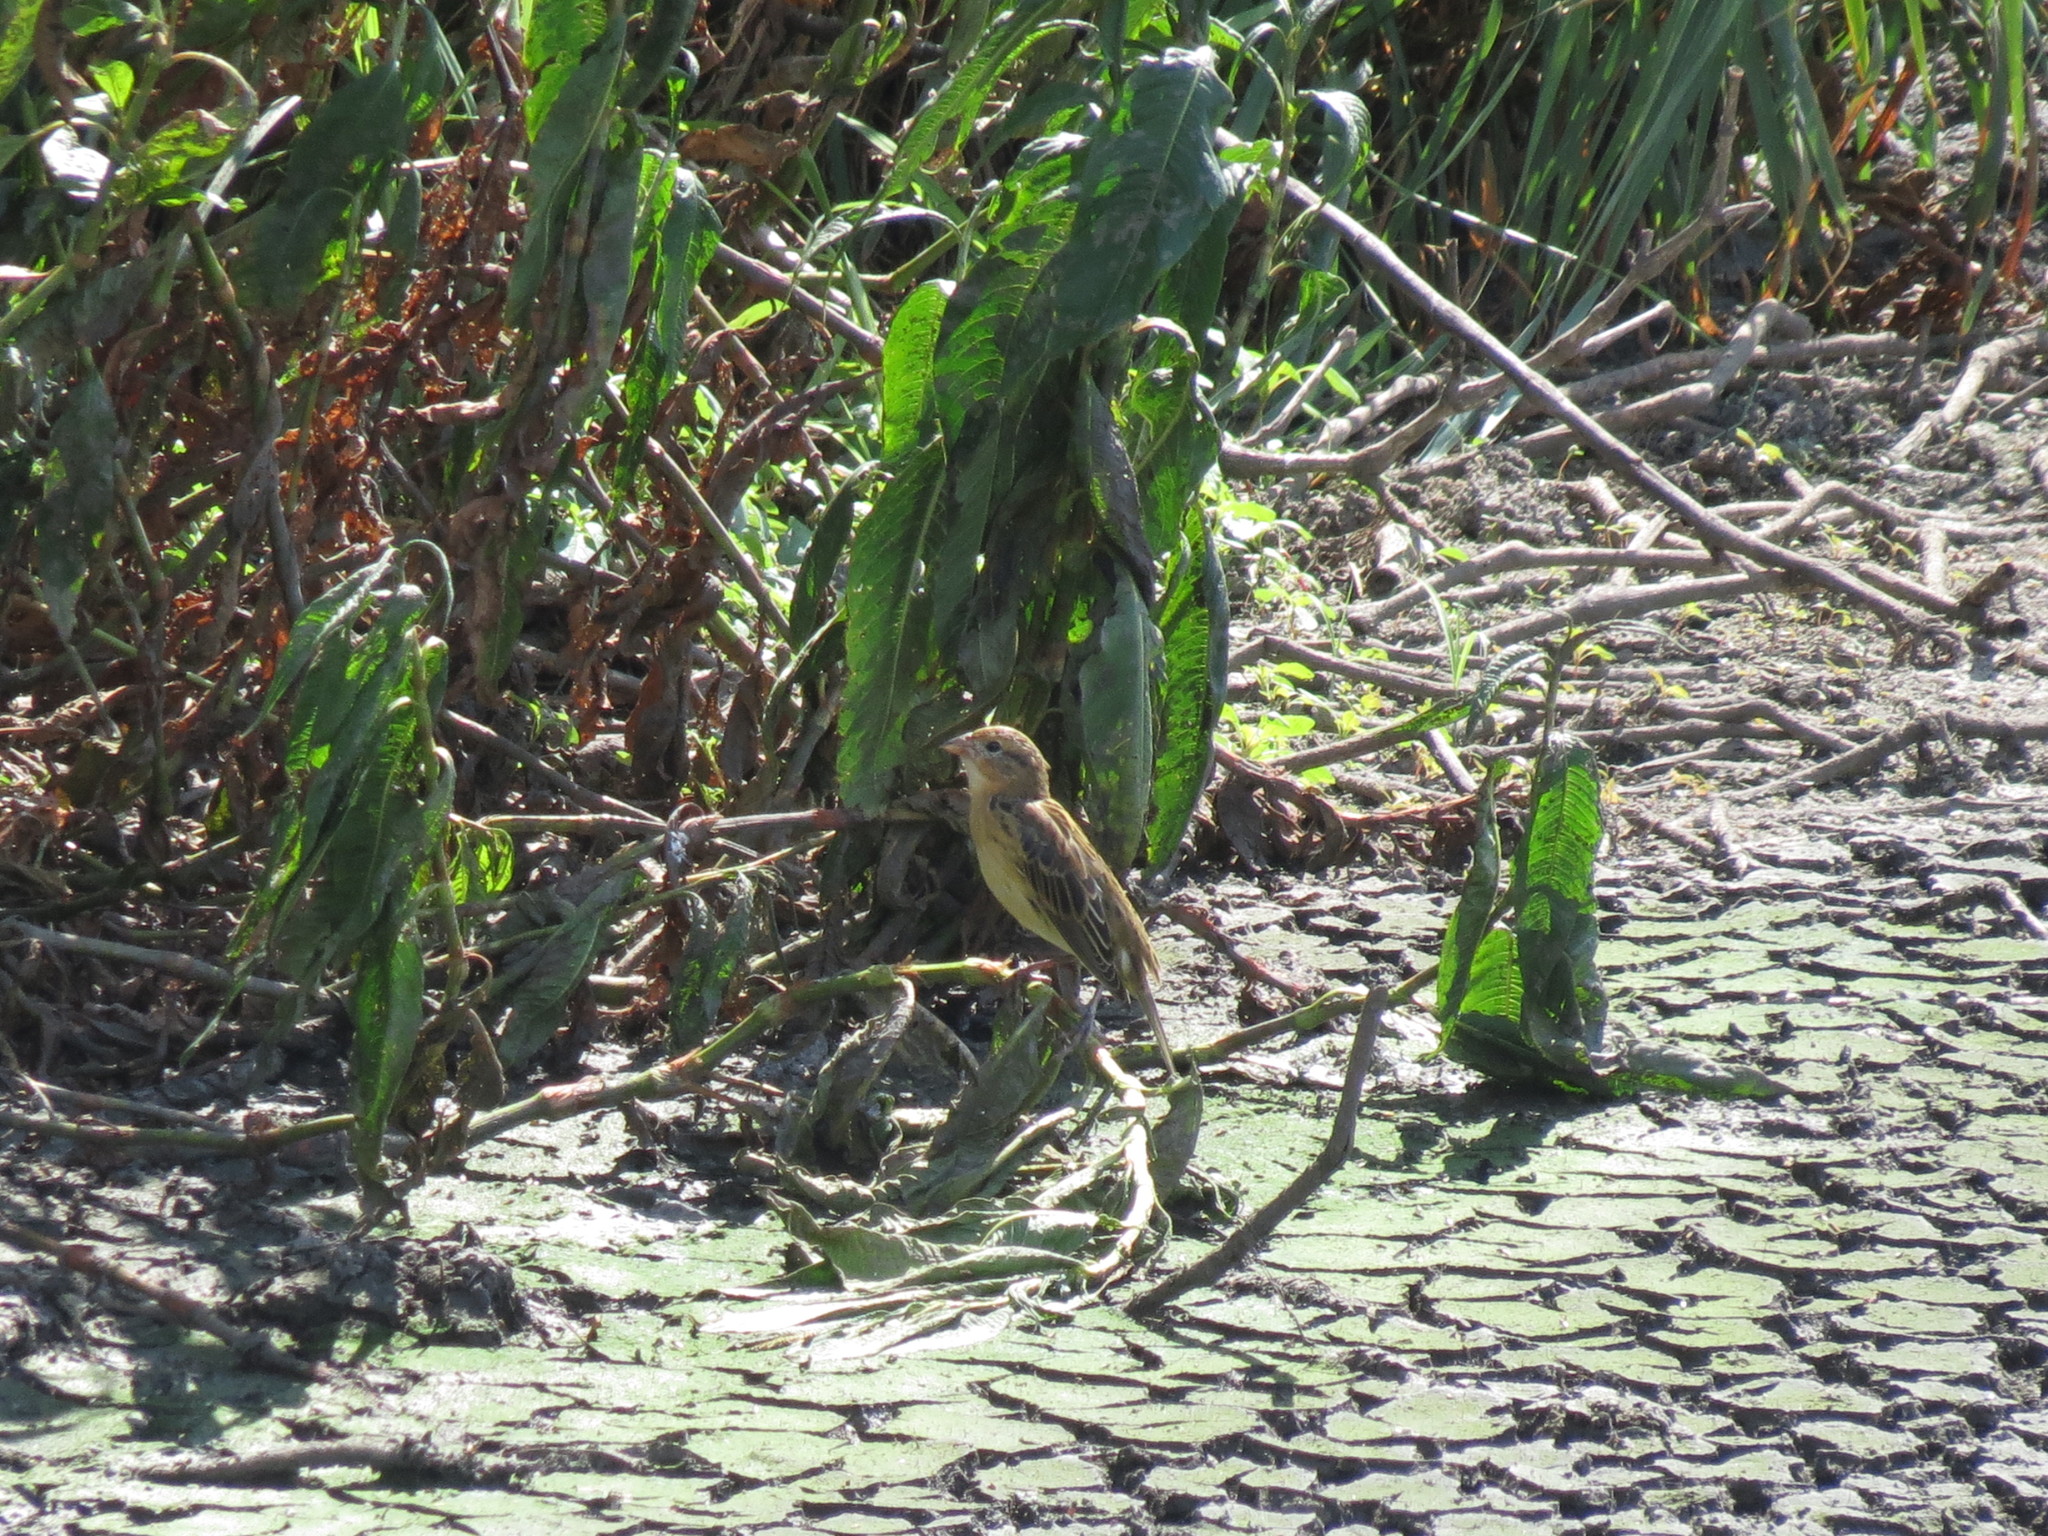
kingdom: Animalia
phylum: Chordata
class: Aves
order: Passeriformes
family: Icteridae
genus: Dolichonyx
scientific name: Dolichonyx oryzivorus
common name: Bobolink
